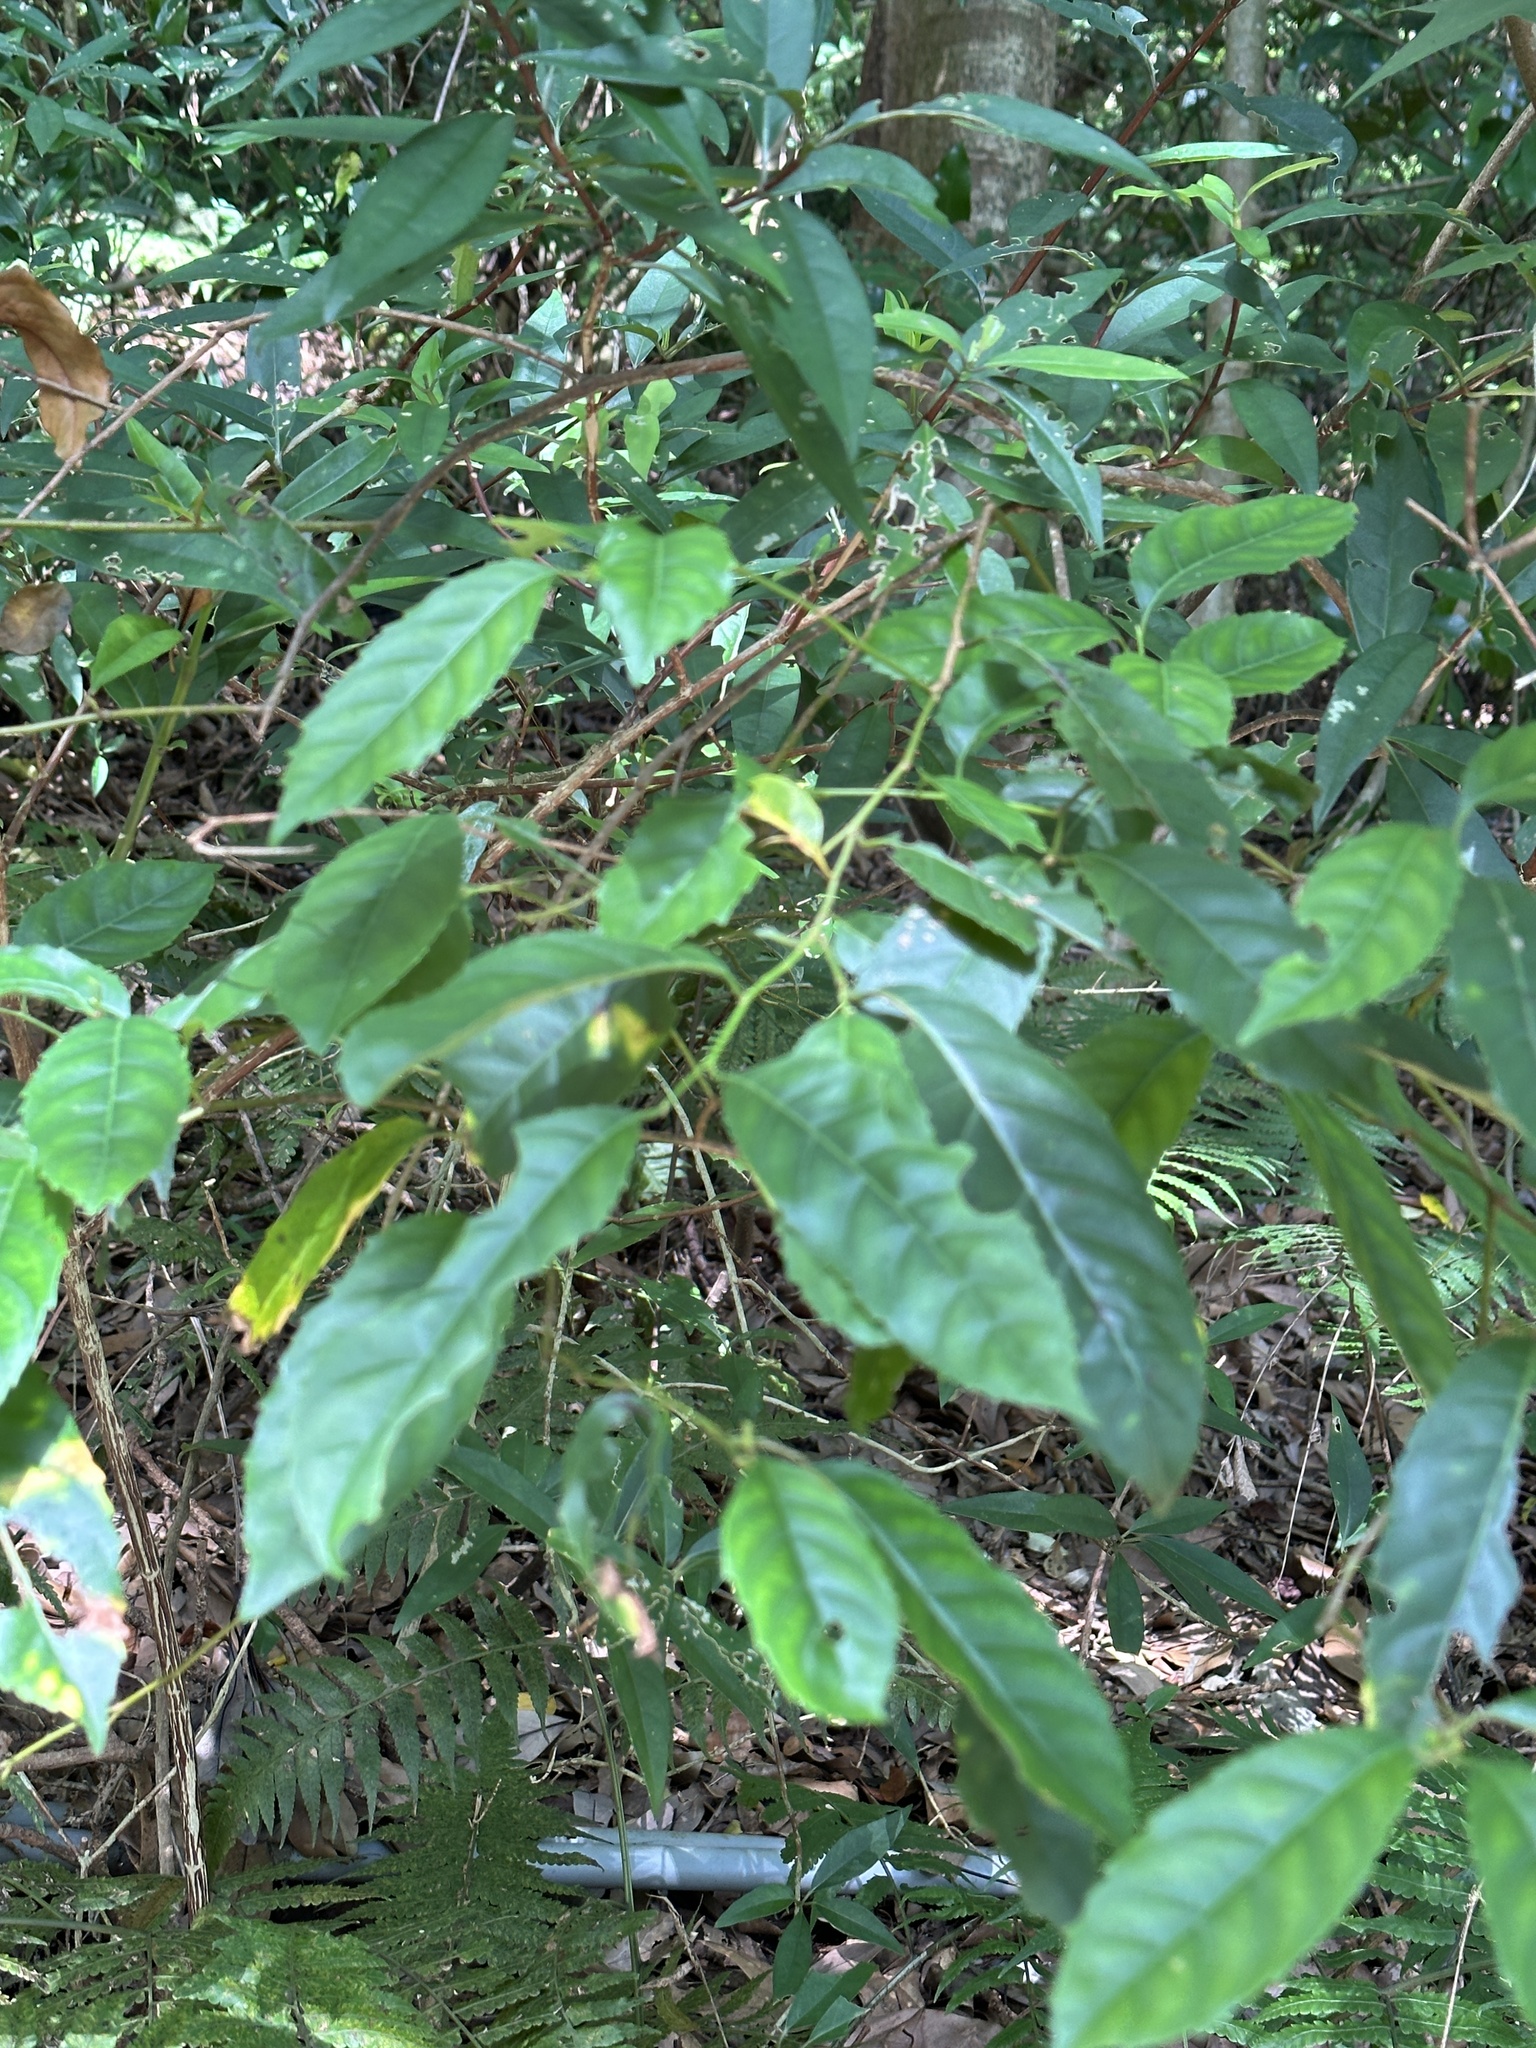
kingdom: Plantae
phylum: Tracheophyta
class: Magnoliopsida
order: Saxifragales
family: Iteaceae
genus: Itea
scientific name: Itea parviflora
